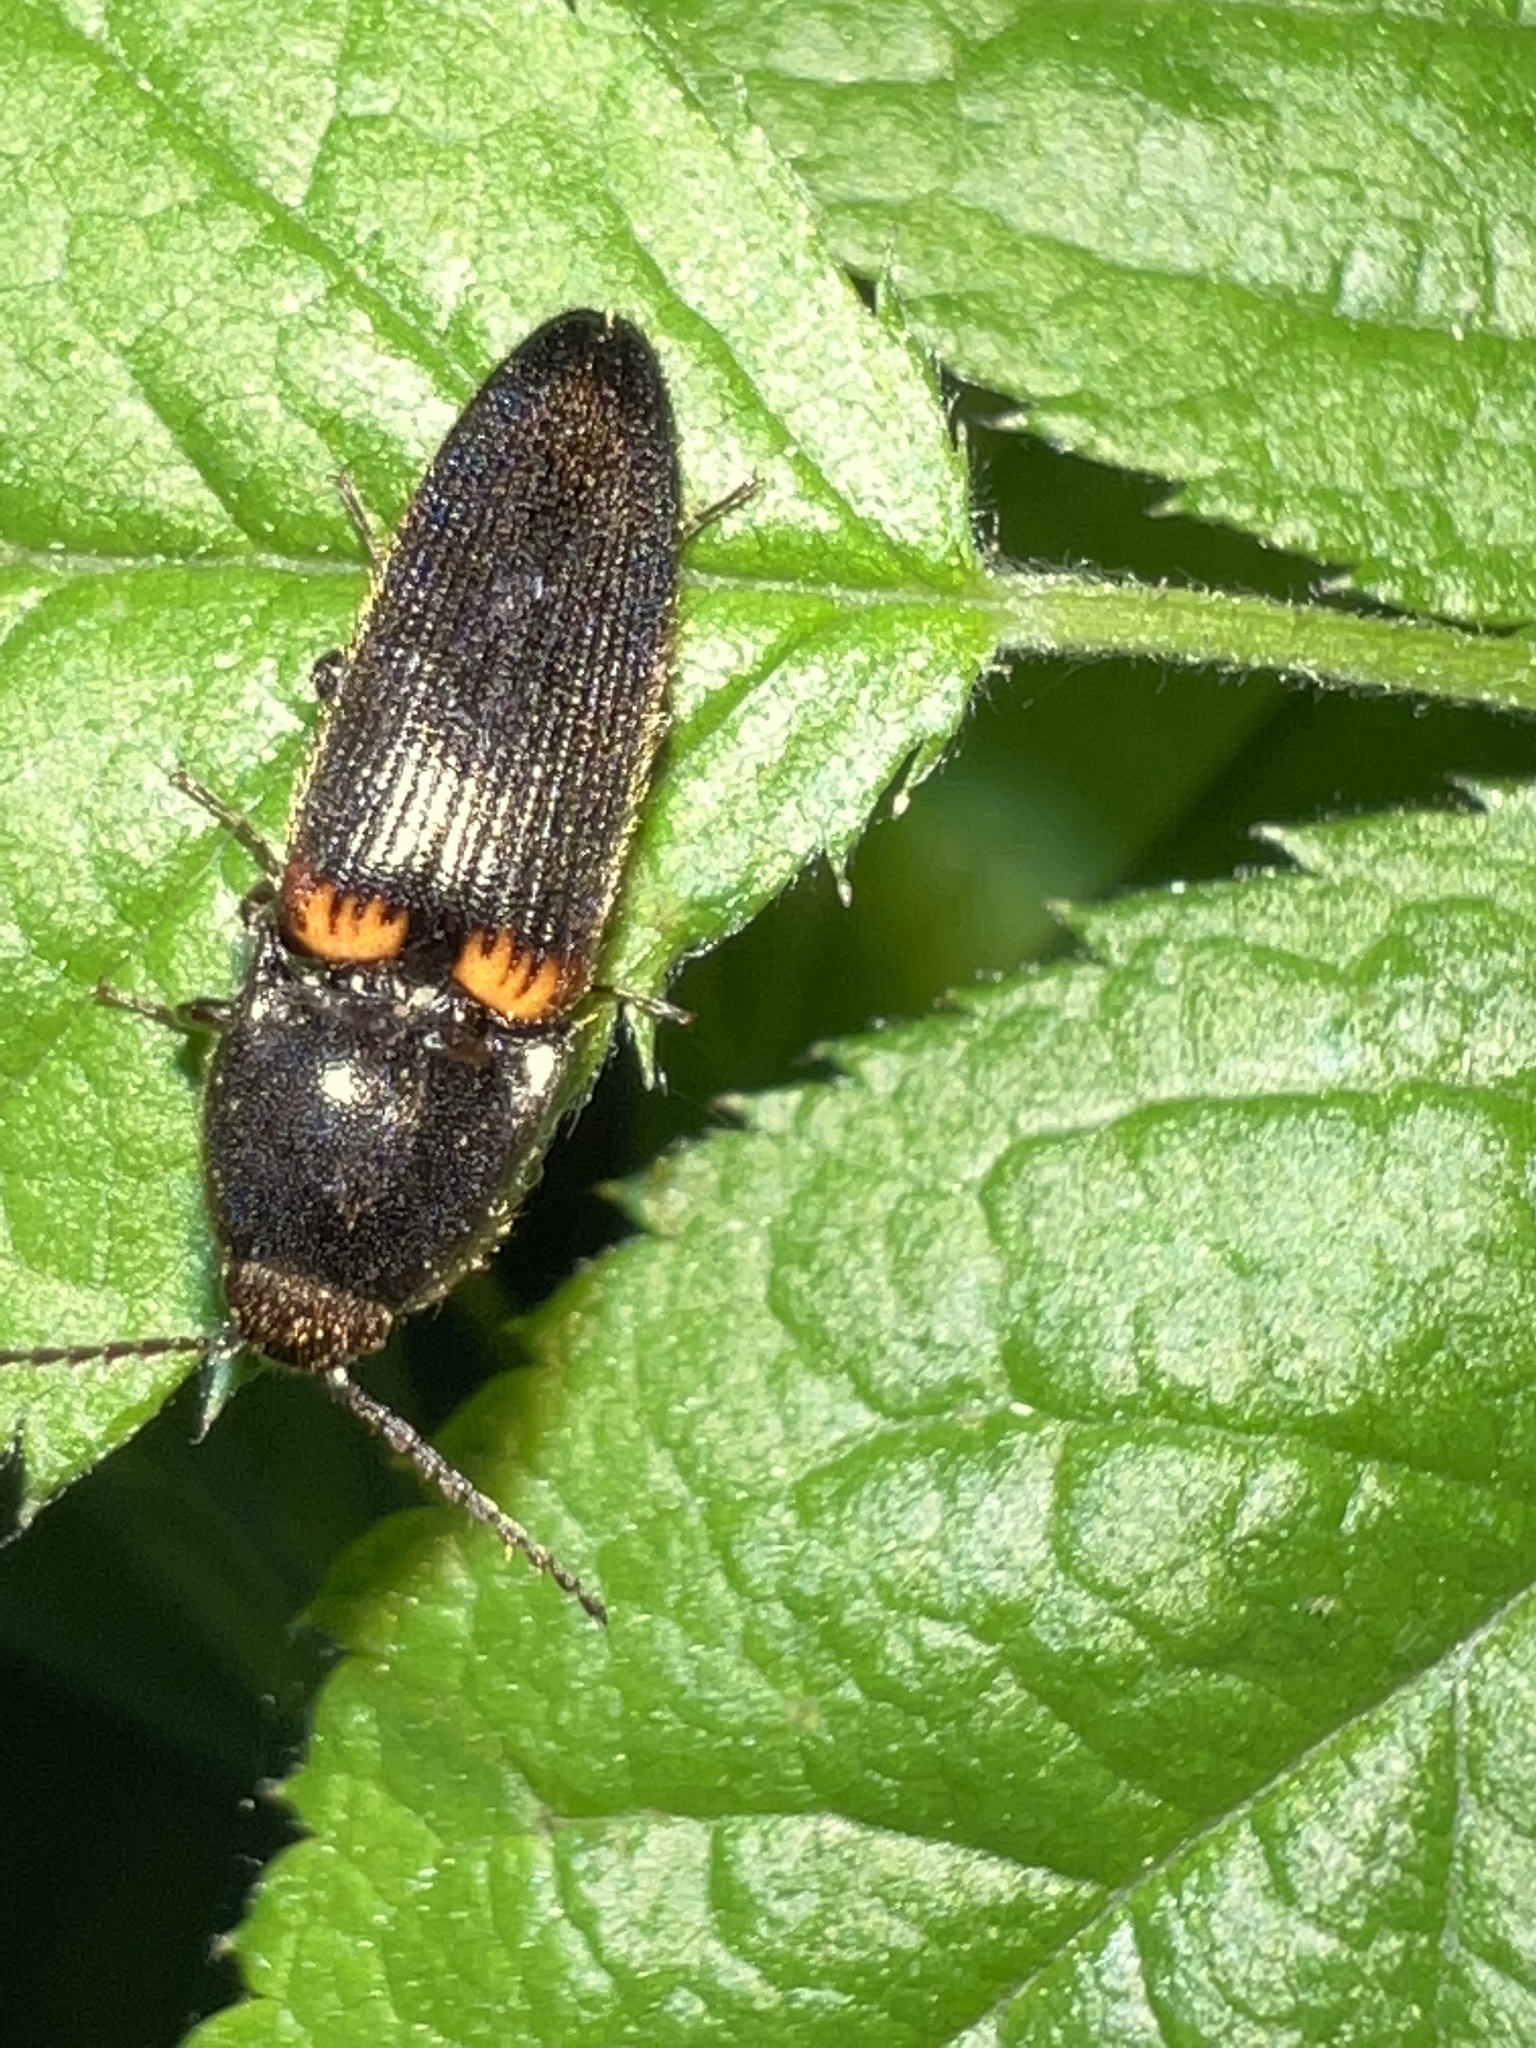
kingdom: Animalia
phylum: Arthropoda
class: Insecta
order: Coleoptera
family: Elateridae
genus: Ampedus
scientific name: Ampedus semicinctus
